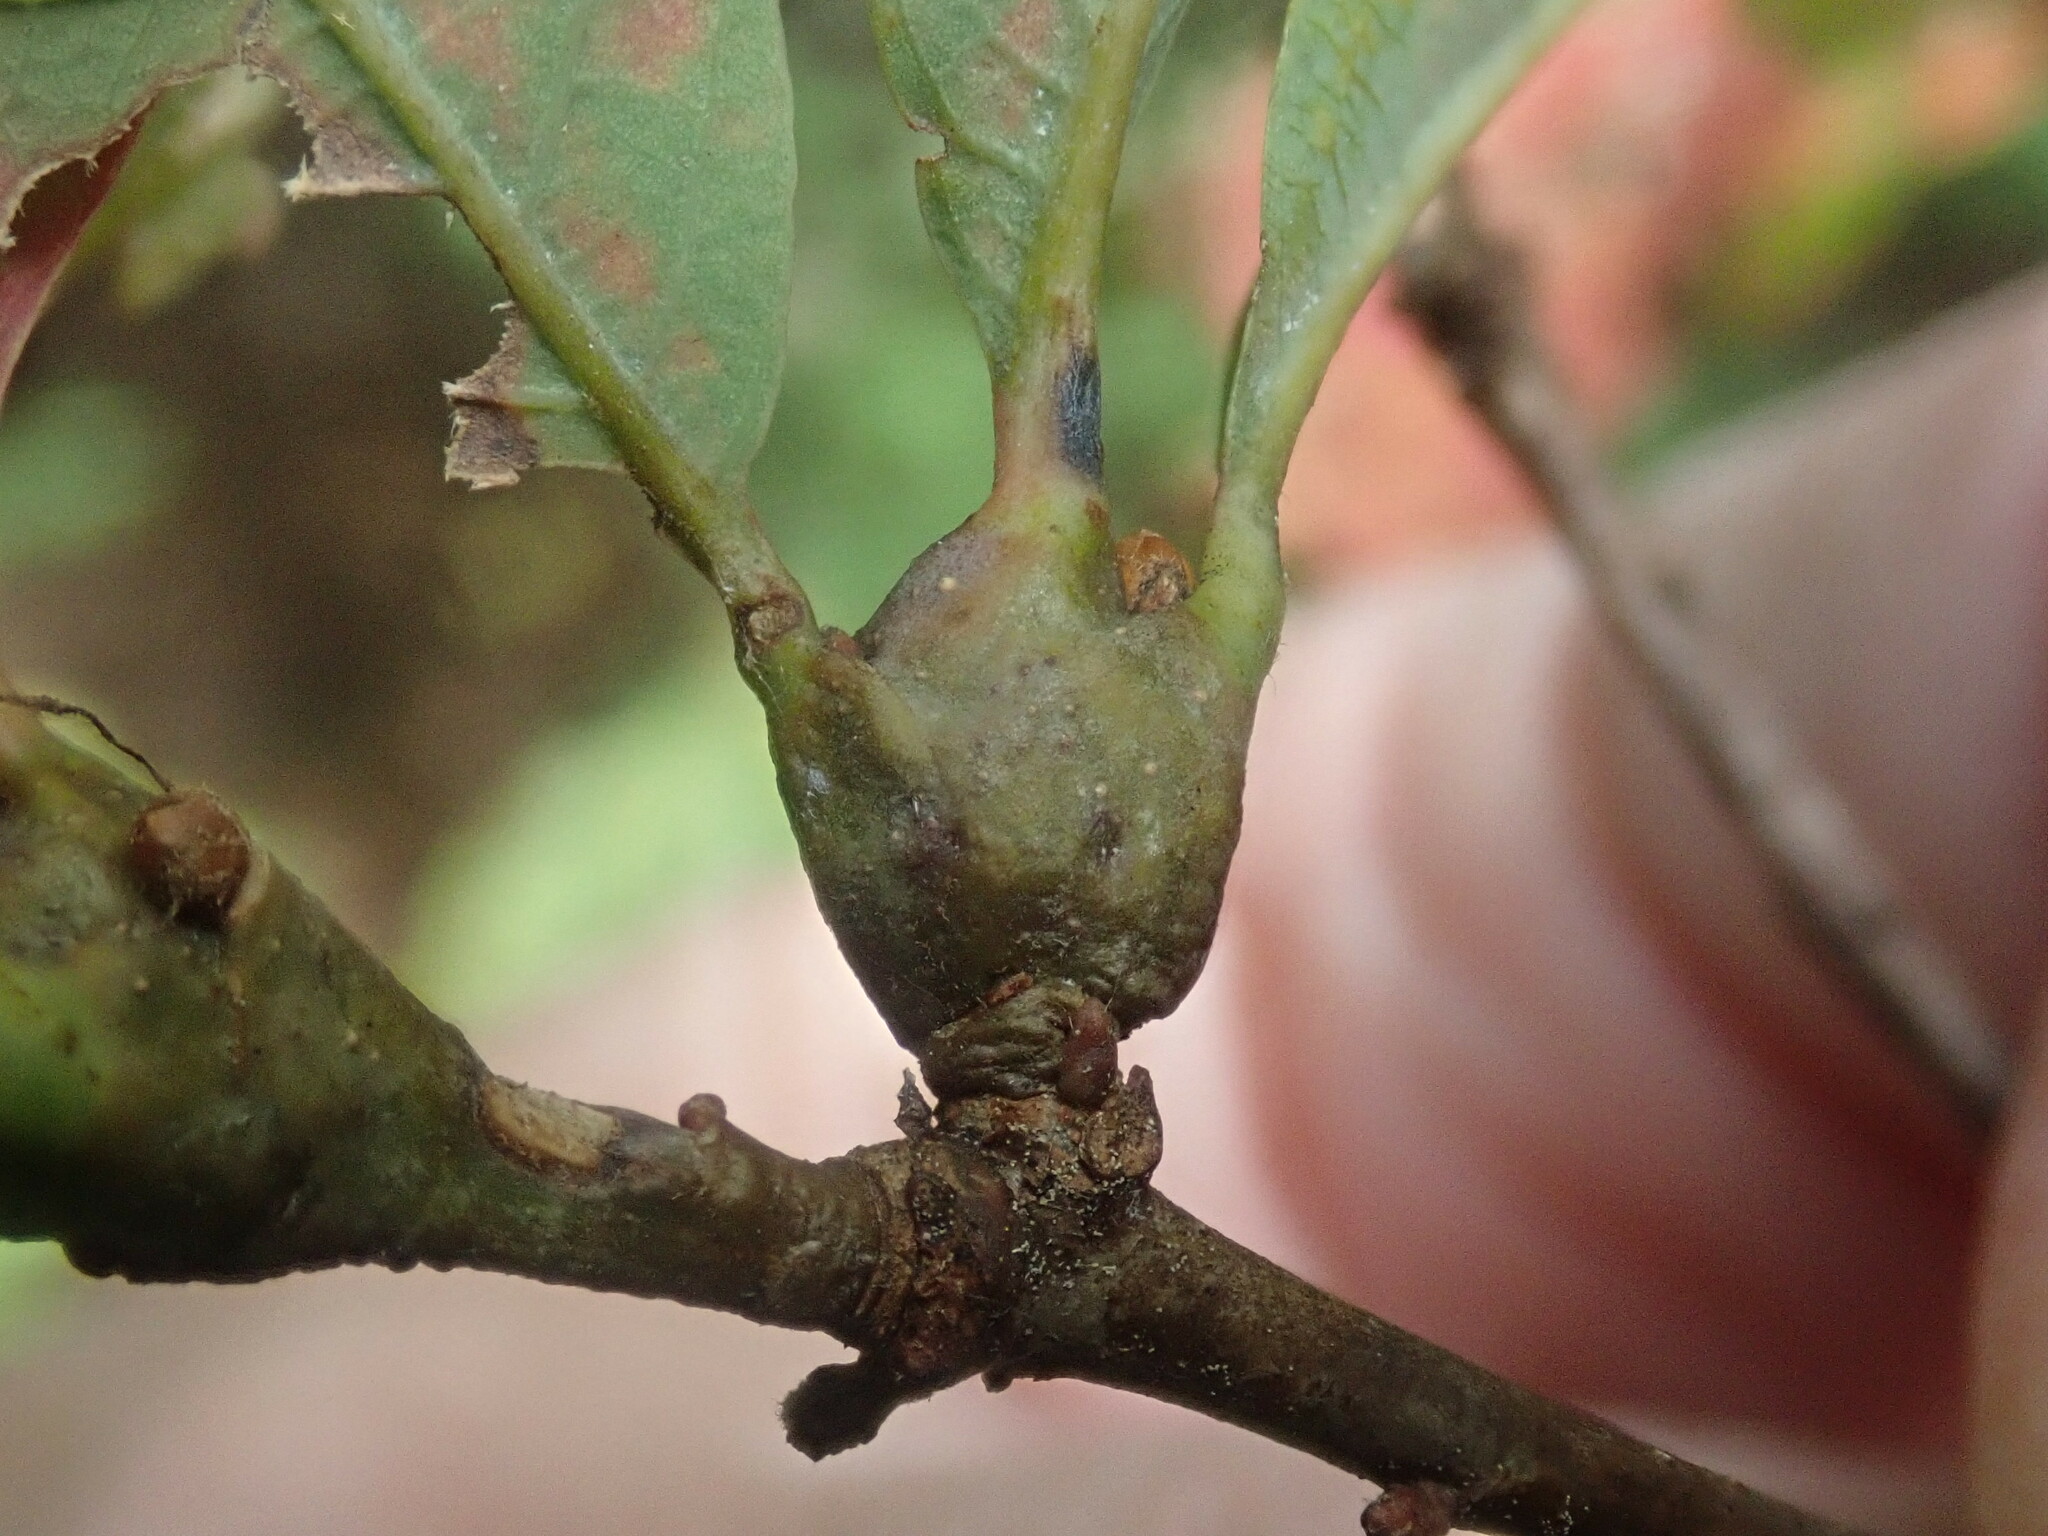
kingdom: Animalia
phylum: Arthropoda
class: Insecta
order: Hymenoptera
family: Cynipidae
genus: Callirhytis
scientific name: Callirhytis clavula
